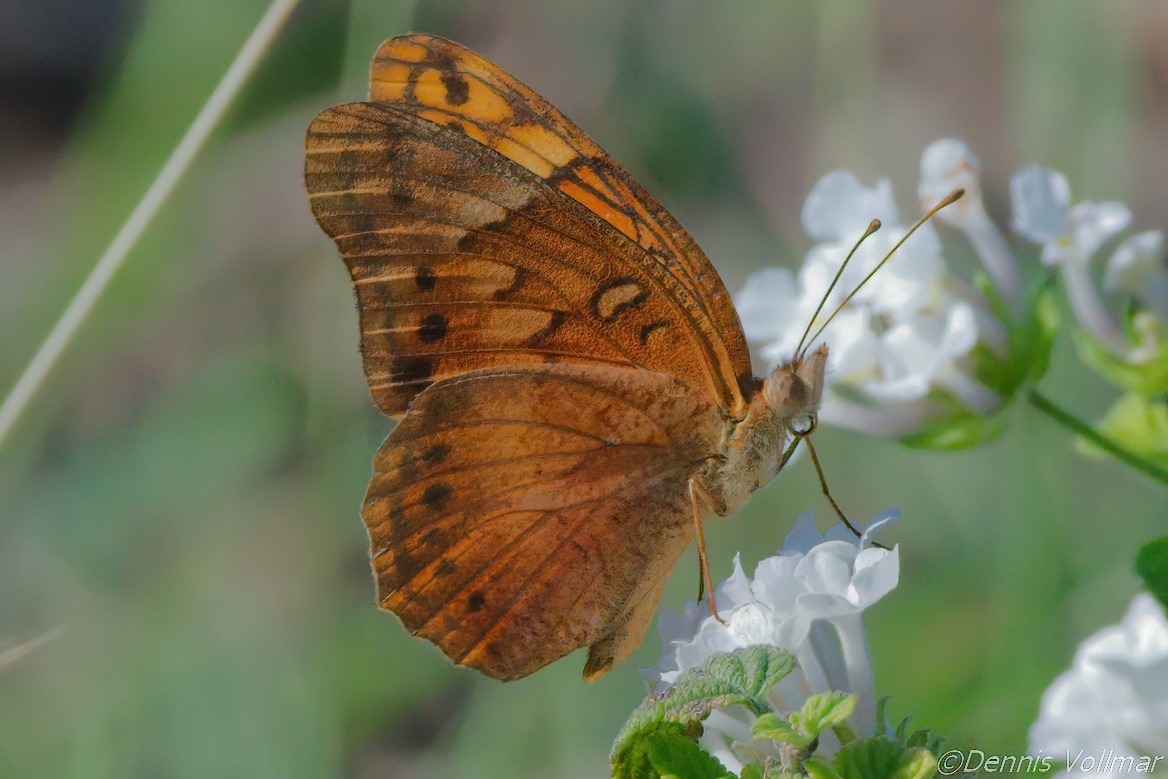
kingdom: Animalia
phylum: Arthropoda
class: Insecta
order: Lepidoptera
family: Nymphalidae
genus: Euptoieta
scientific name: Euptoieta hegesia
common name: Mexican fritillary
